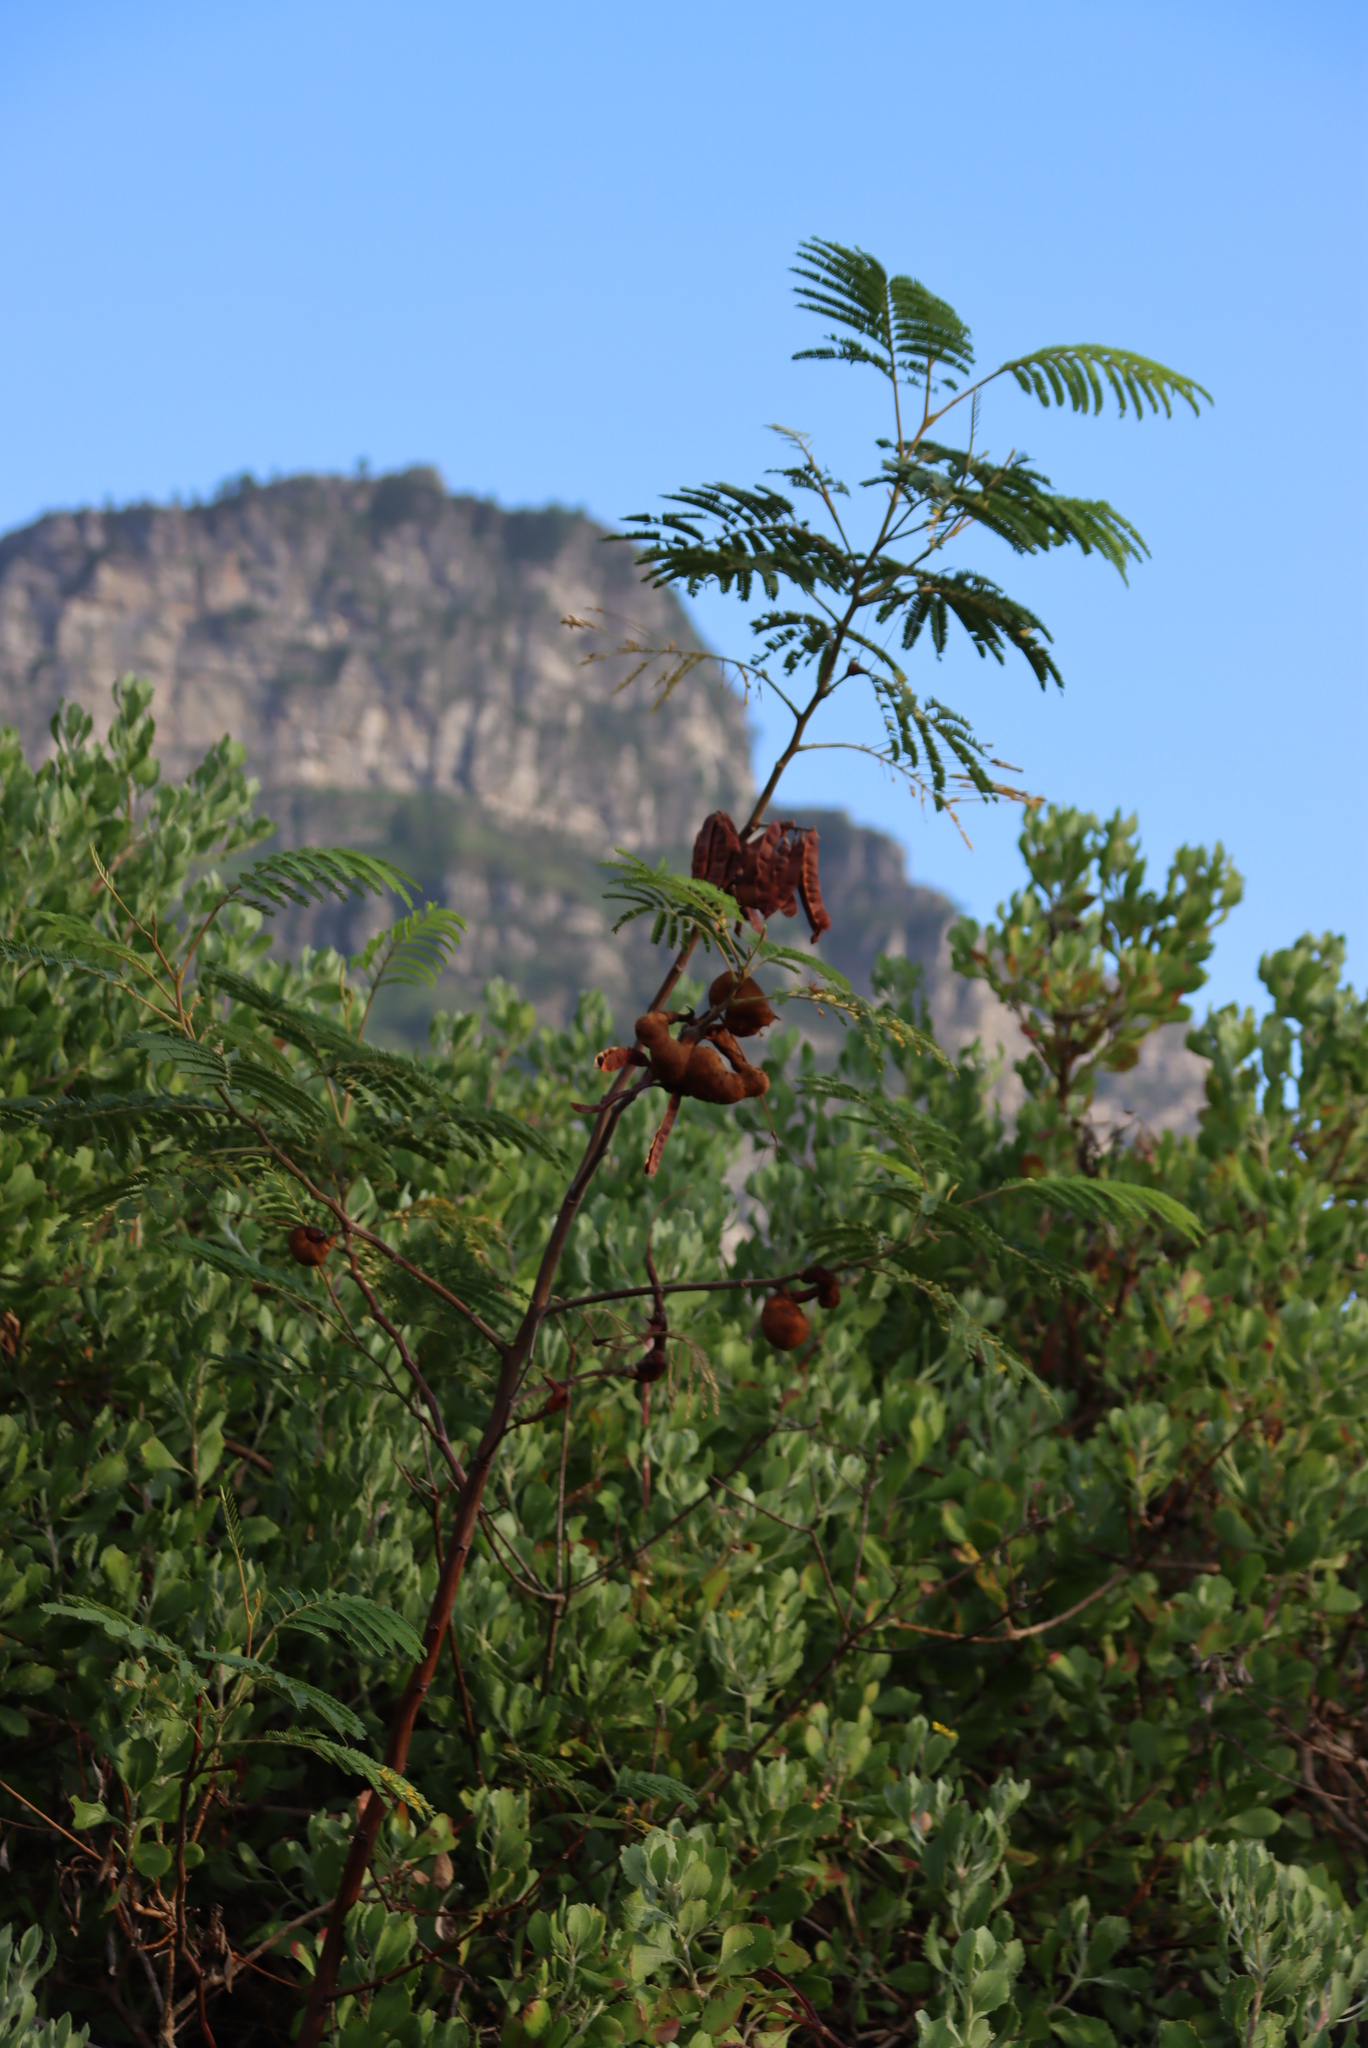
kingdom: Plantae
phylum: Tracheophyta
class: Magnoliopsida
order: Fabales
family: Fabaceae
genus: Paraserianthes
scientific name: Paraserianthes lophantha
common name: Plume albizia
